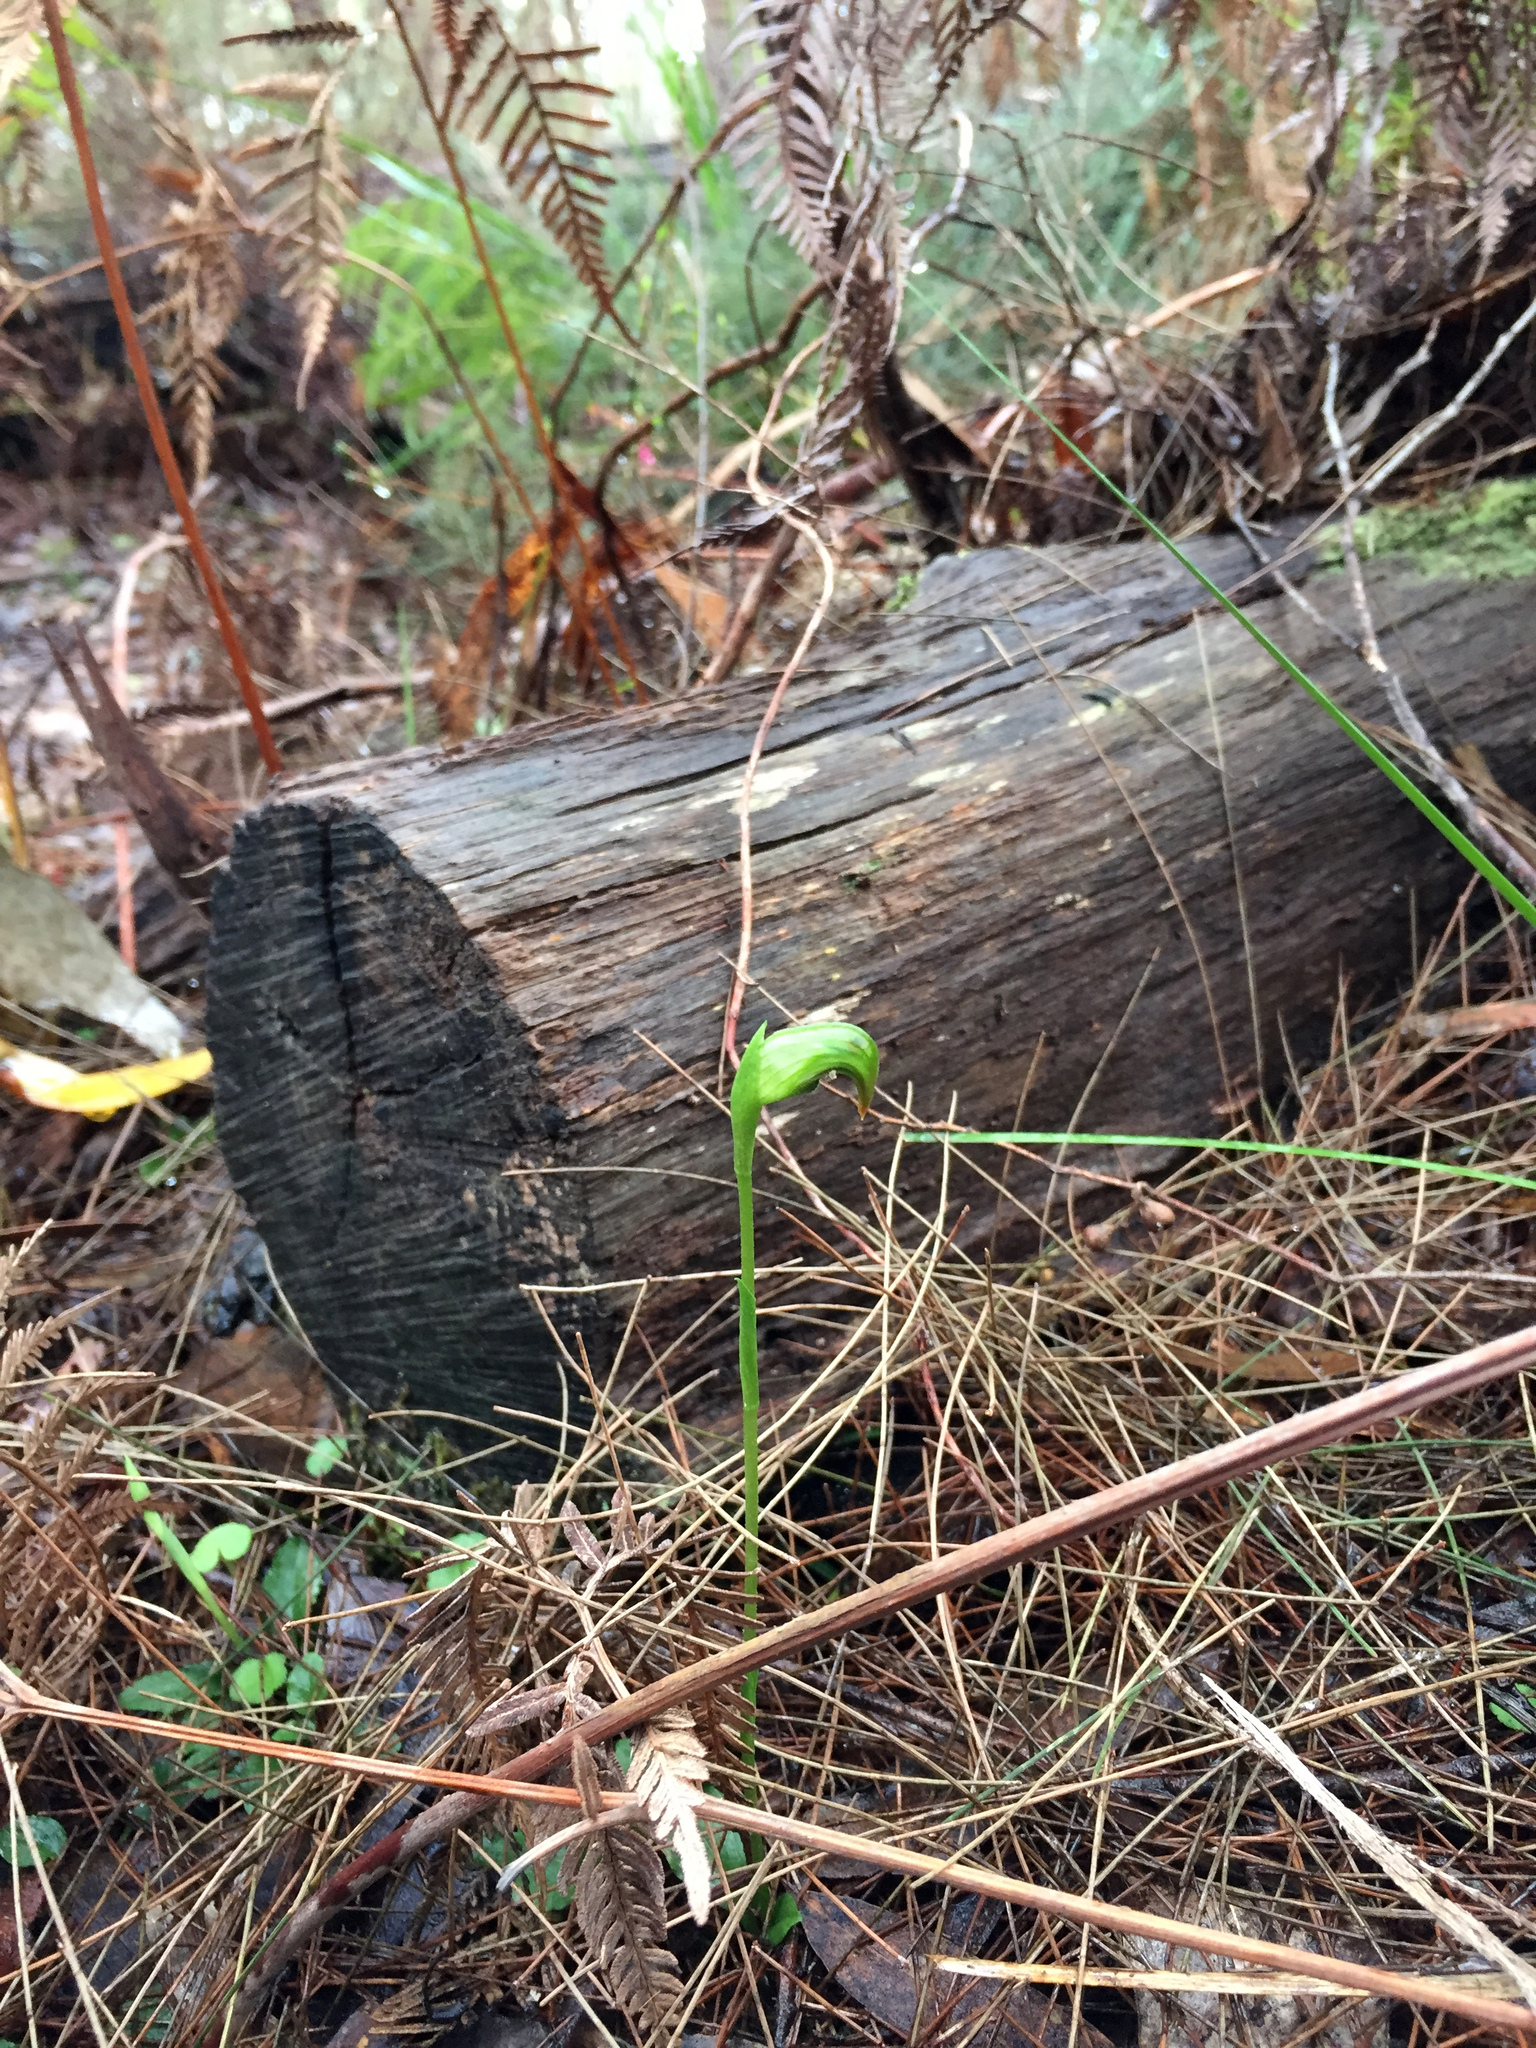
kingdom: Plantae
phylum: Tracheophyta
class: Liliopsida
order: Asparagales
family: Orchidaceae
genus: Pterostylis
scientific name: Pterostylis nutans
